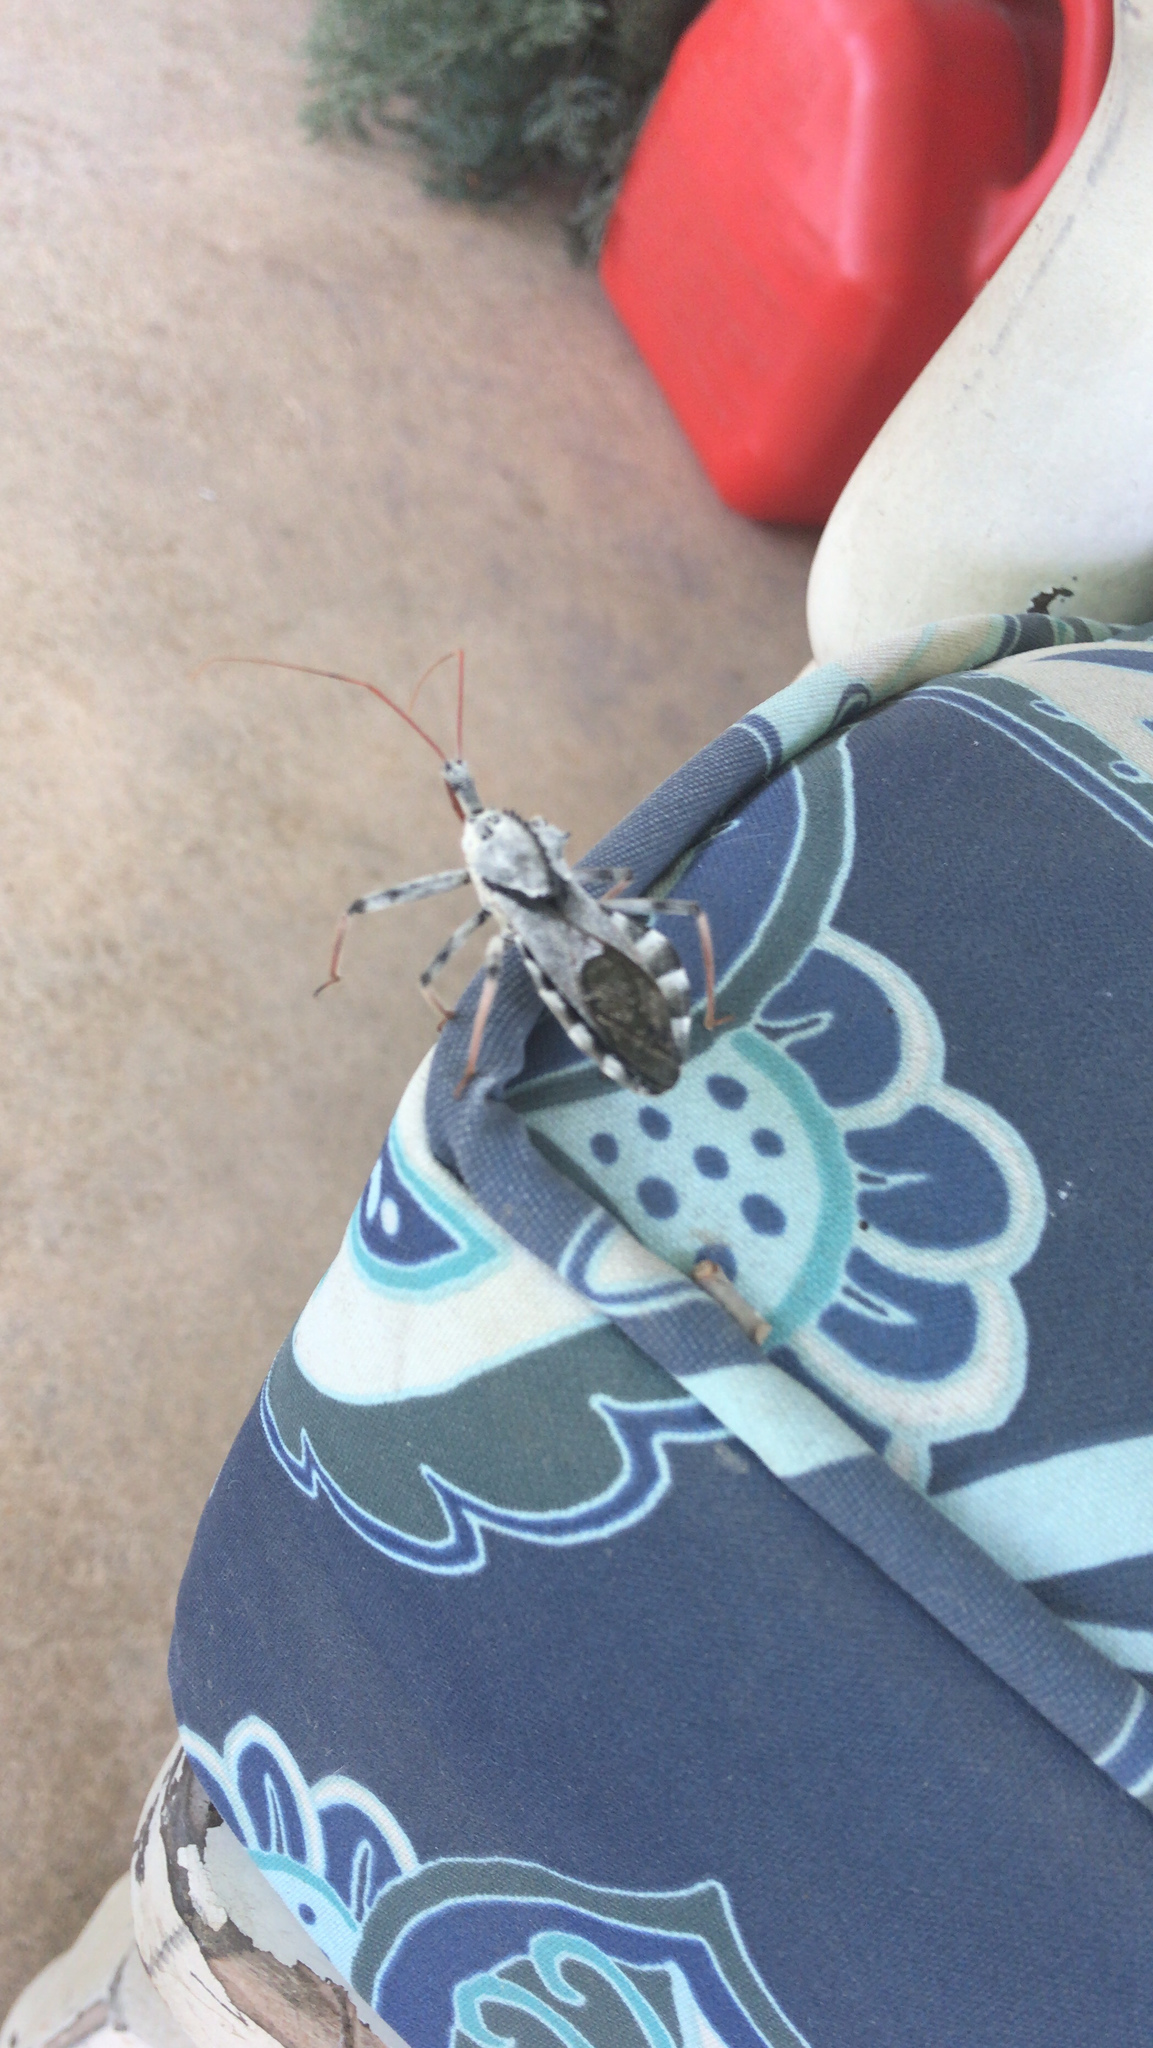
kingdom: Animalia
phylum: Arthropoda
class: Insecta
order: Hemiptera
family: Reduviidae
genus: Arilus
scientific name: Arilus cristatus
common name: North american wheel bug
